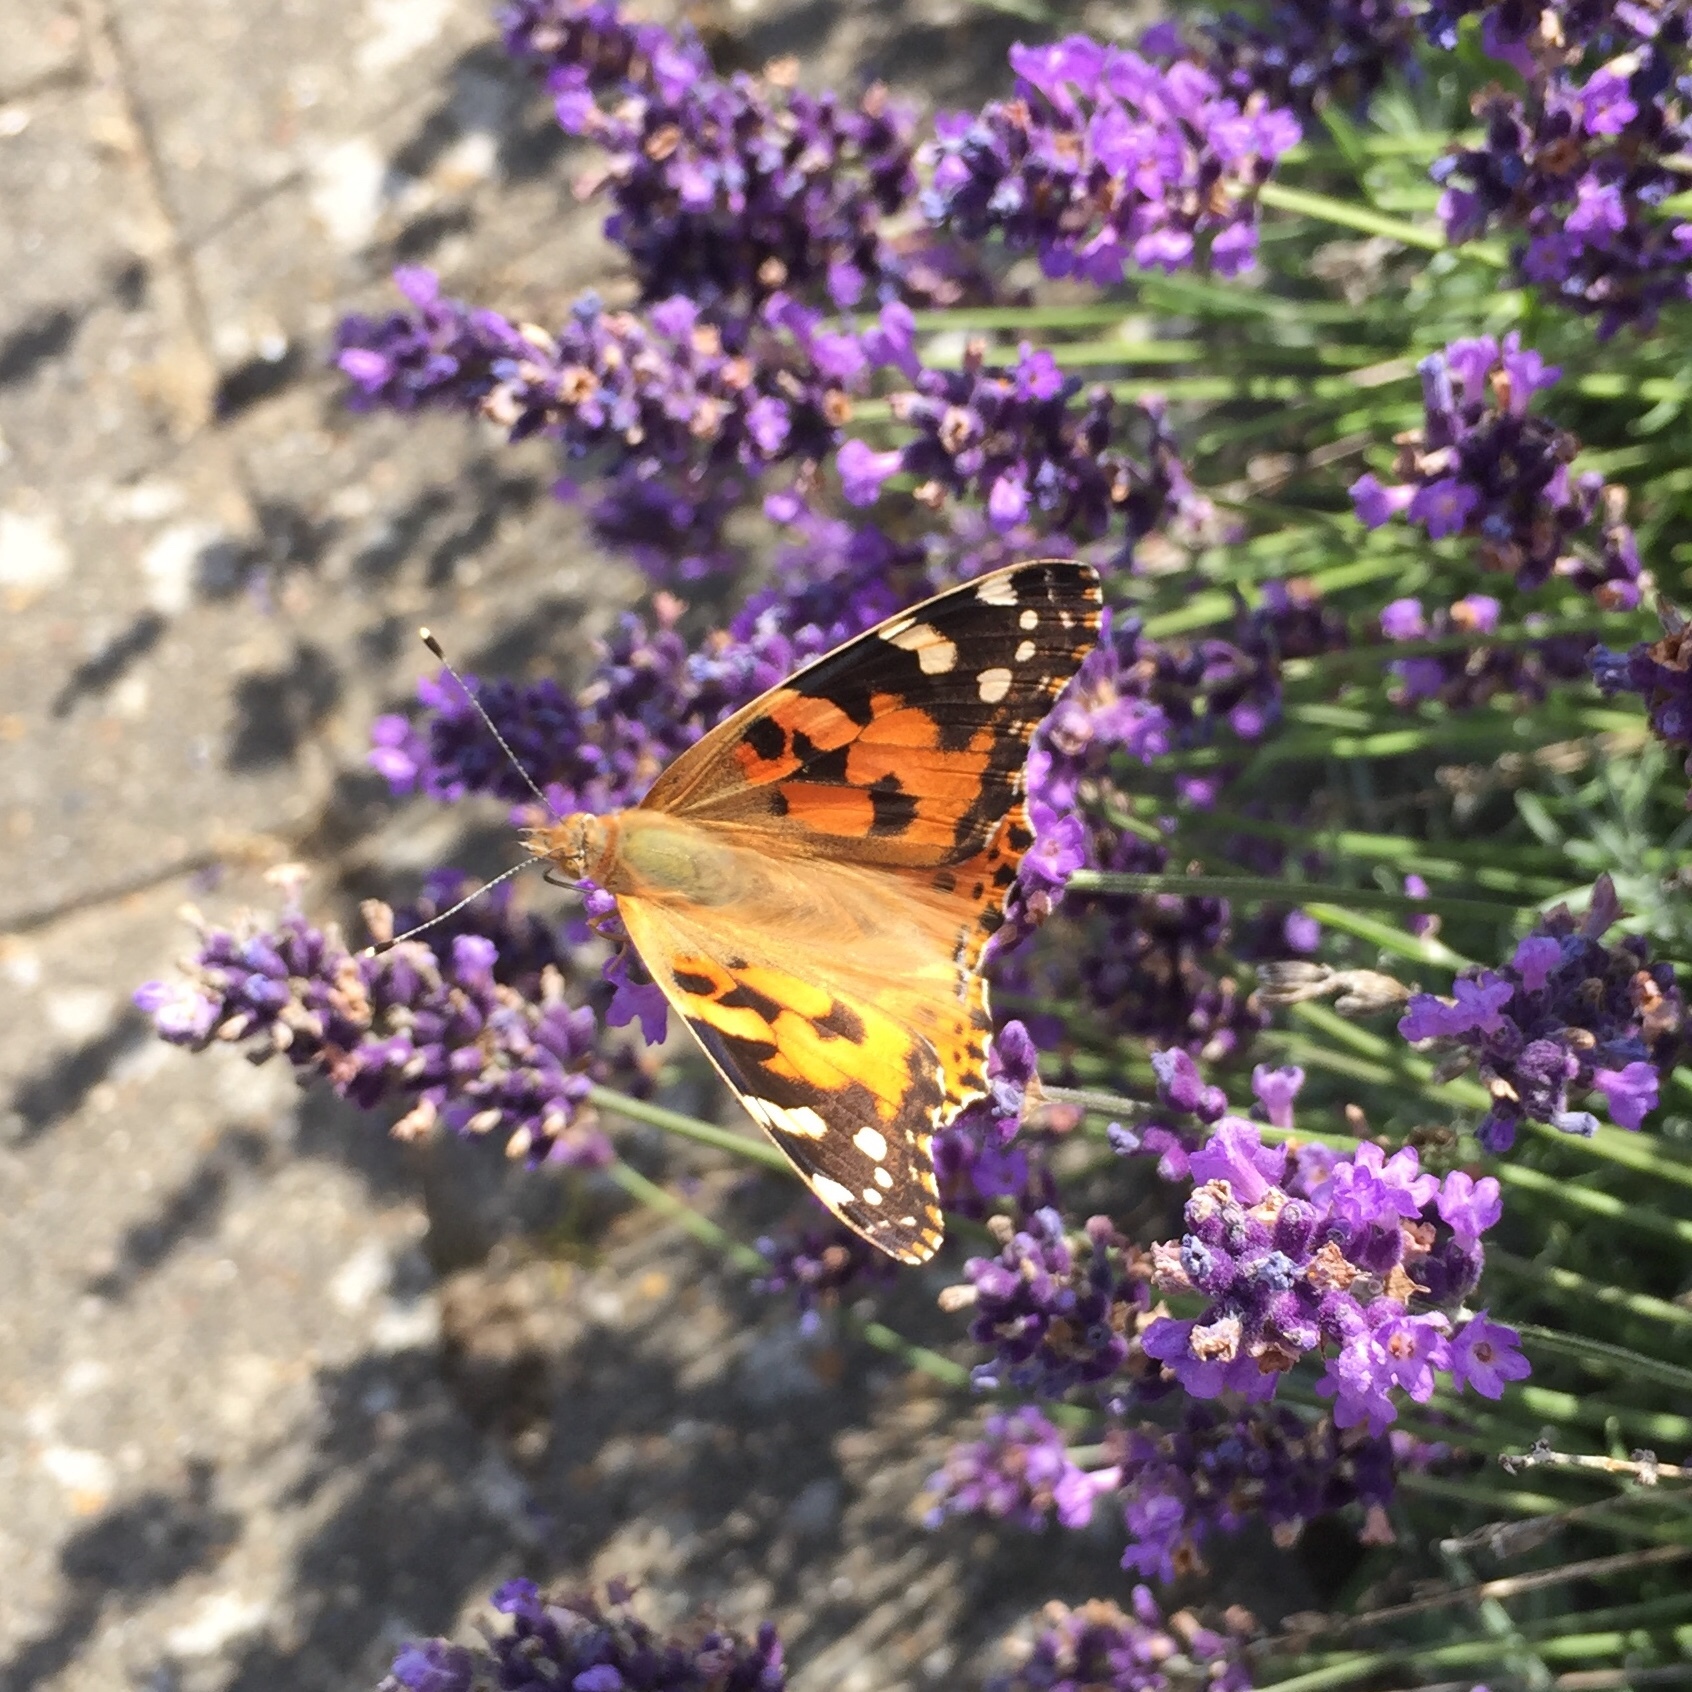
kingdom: Animalia
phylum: Arthropoda
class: Insecta
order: Lepidoptera
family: Nymphalidae
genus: Vanessa
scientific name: Vanessa cardui
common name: Painted lady
